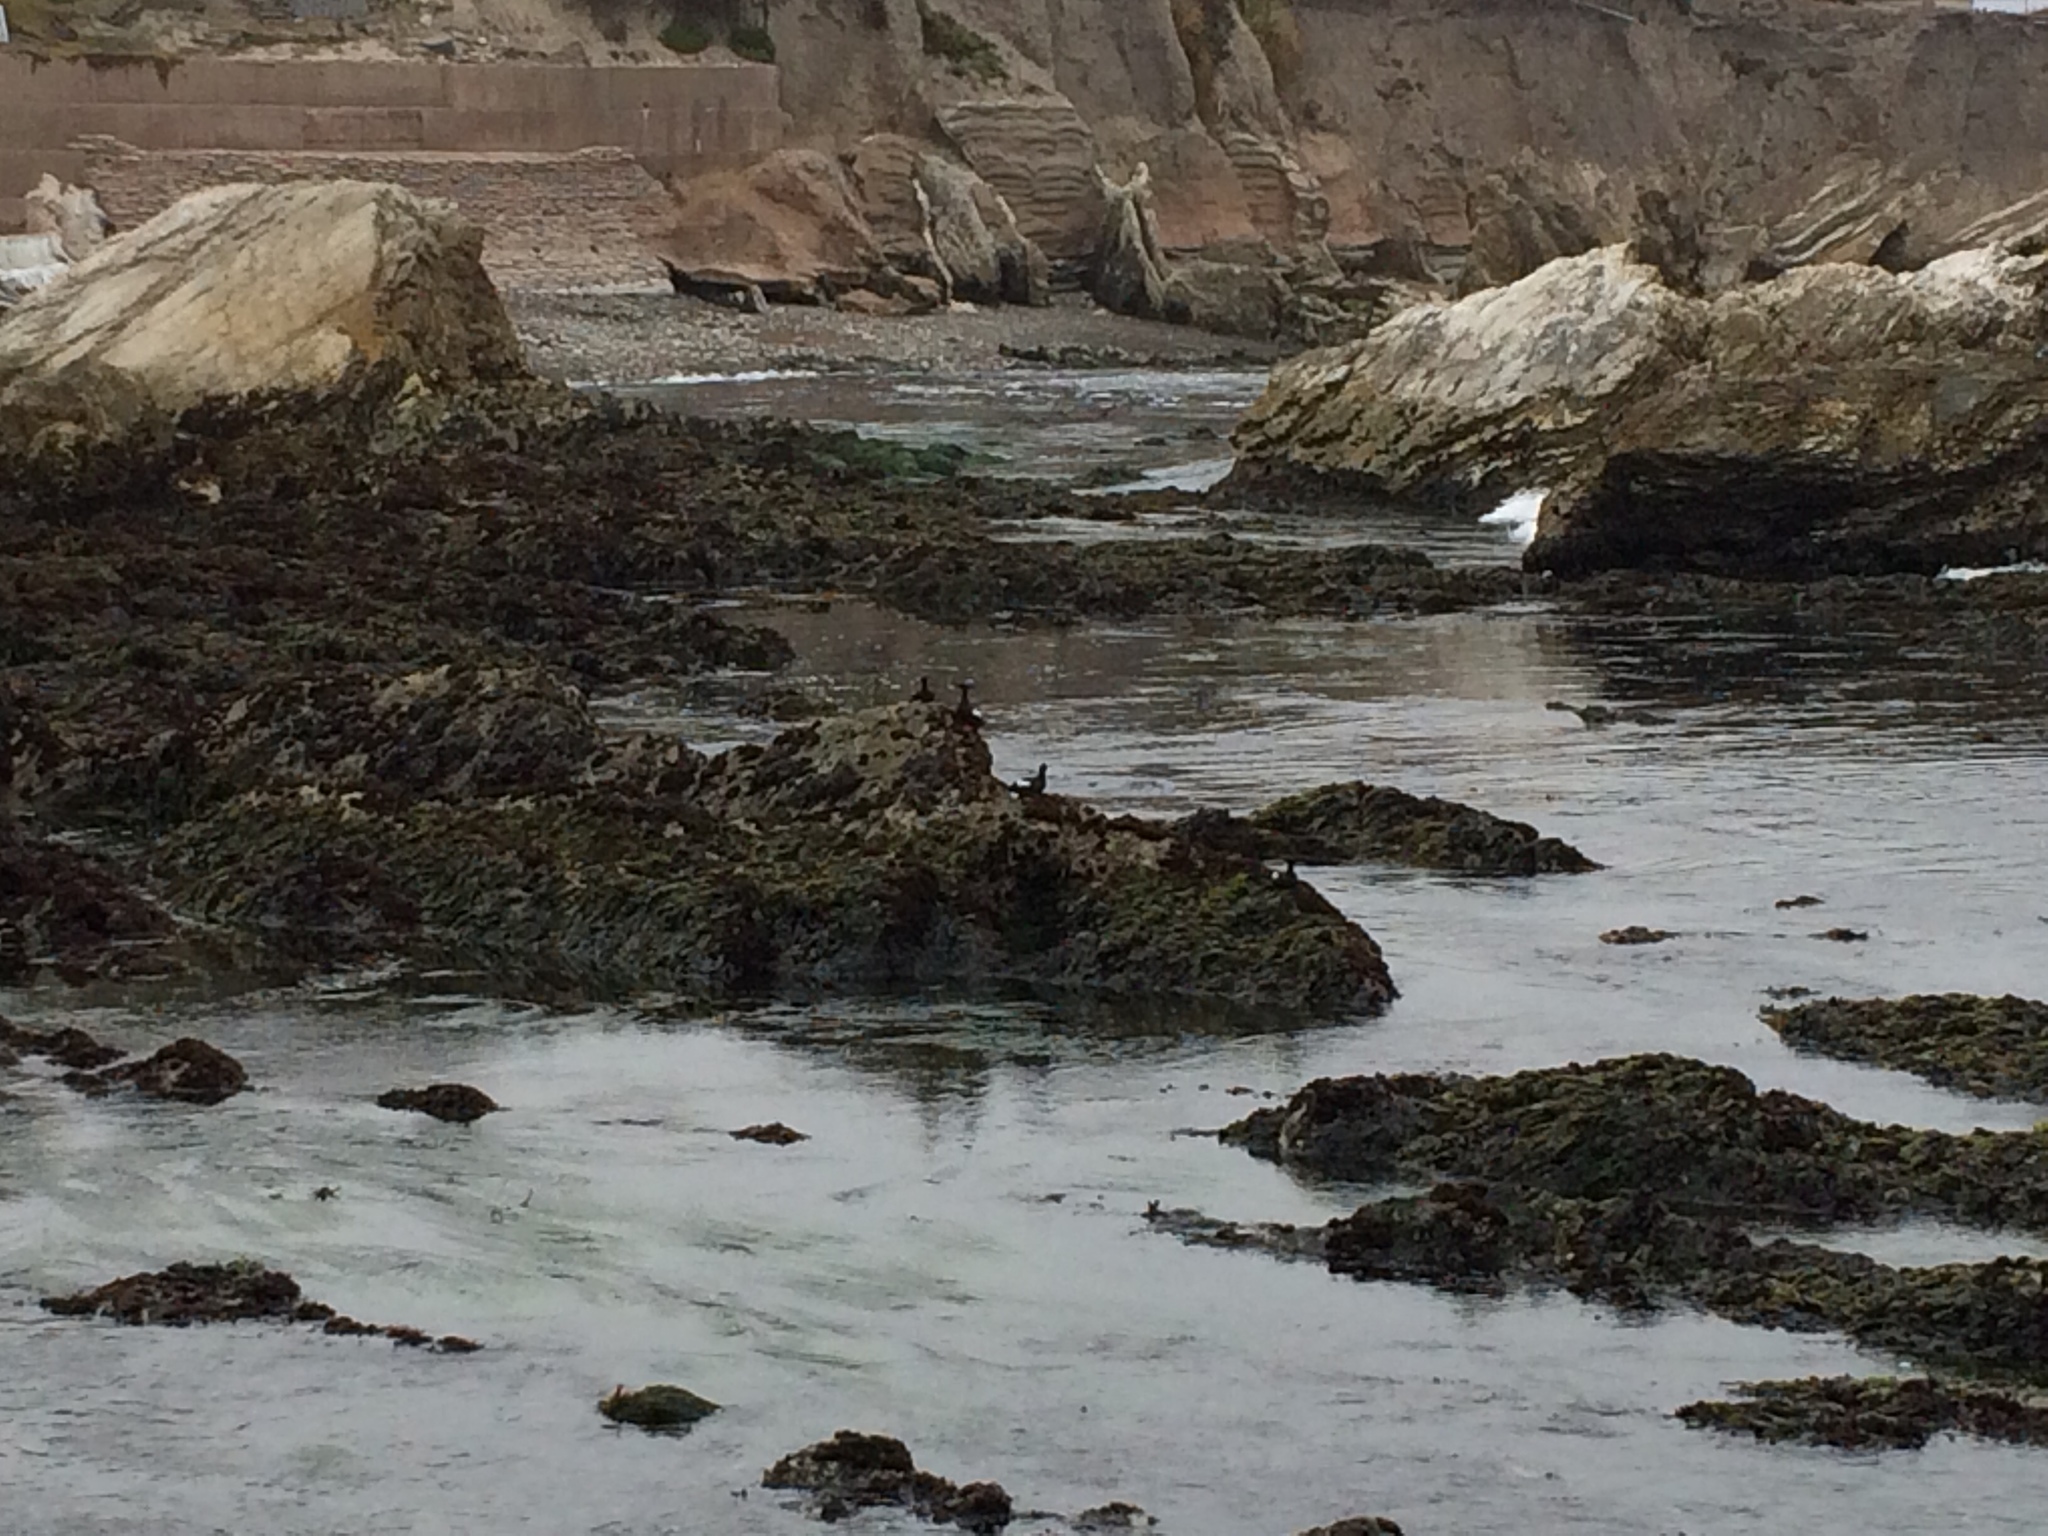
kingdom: Animalia
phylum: Chordata
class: Aves
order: Charadriiformes
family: Alcidae
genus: Cepphus
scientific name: Cepphus columba
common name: Pigeon guillemot
